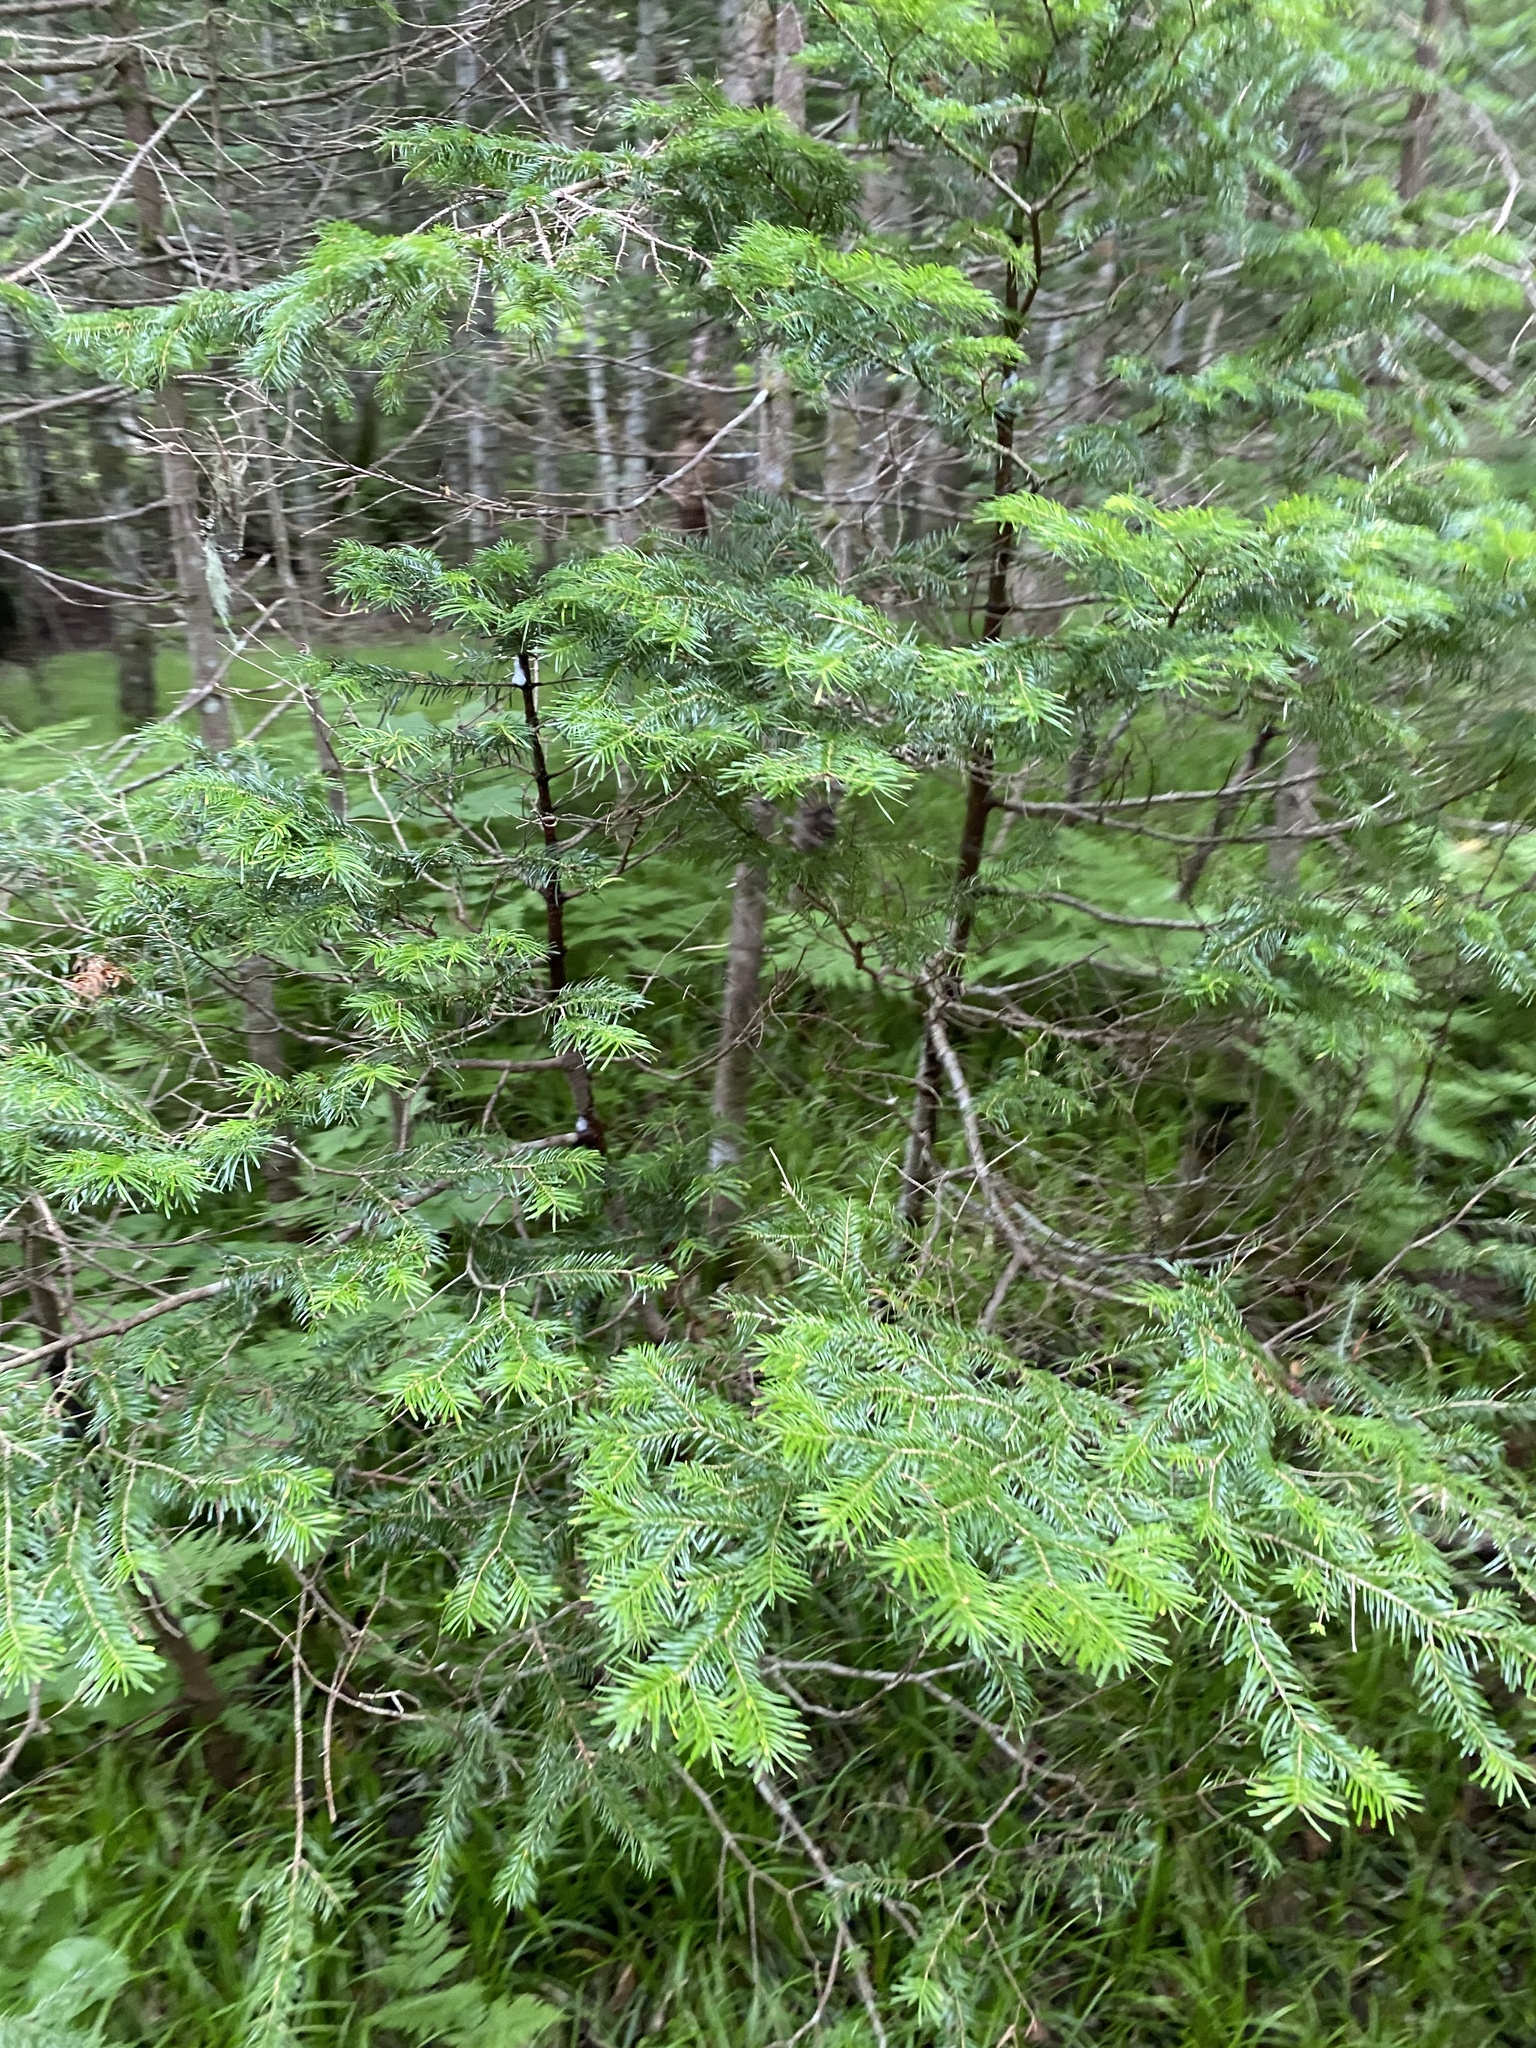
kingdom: Plantae
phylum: Tracheophyta
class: Pinopsida
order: Pinales
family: Pinaceae
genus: Abies
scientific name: Abies sachalinensis
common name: Sakhalin fir
